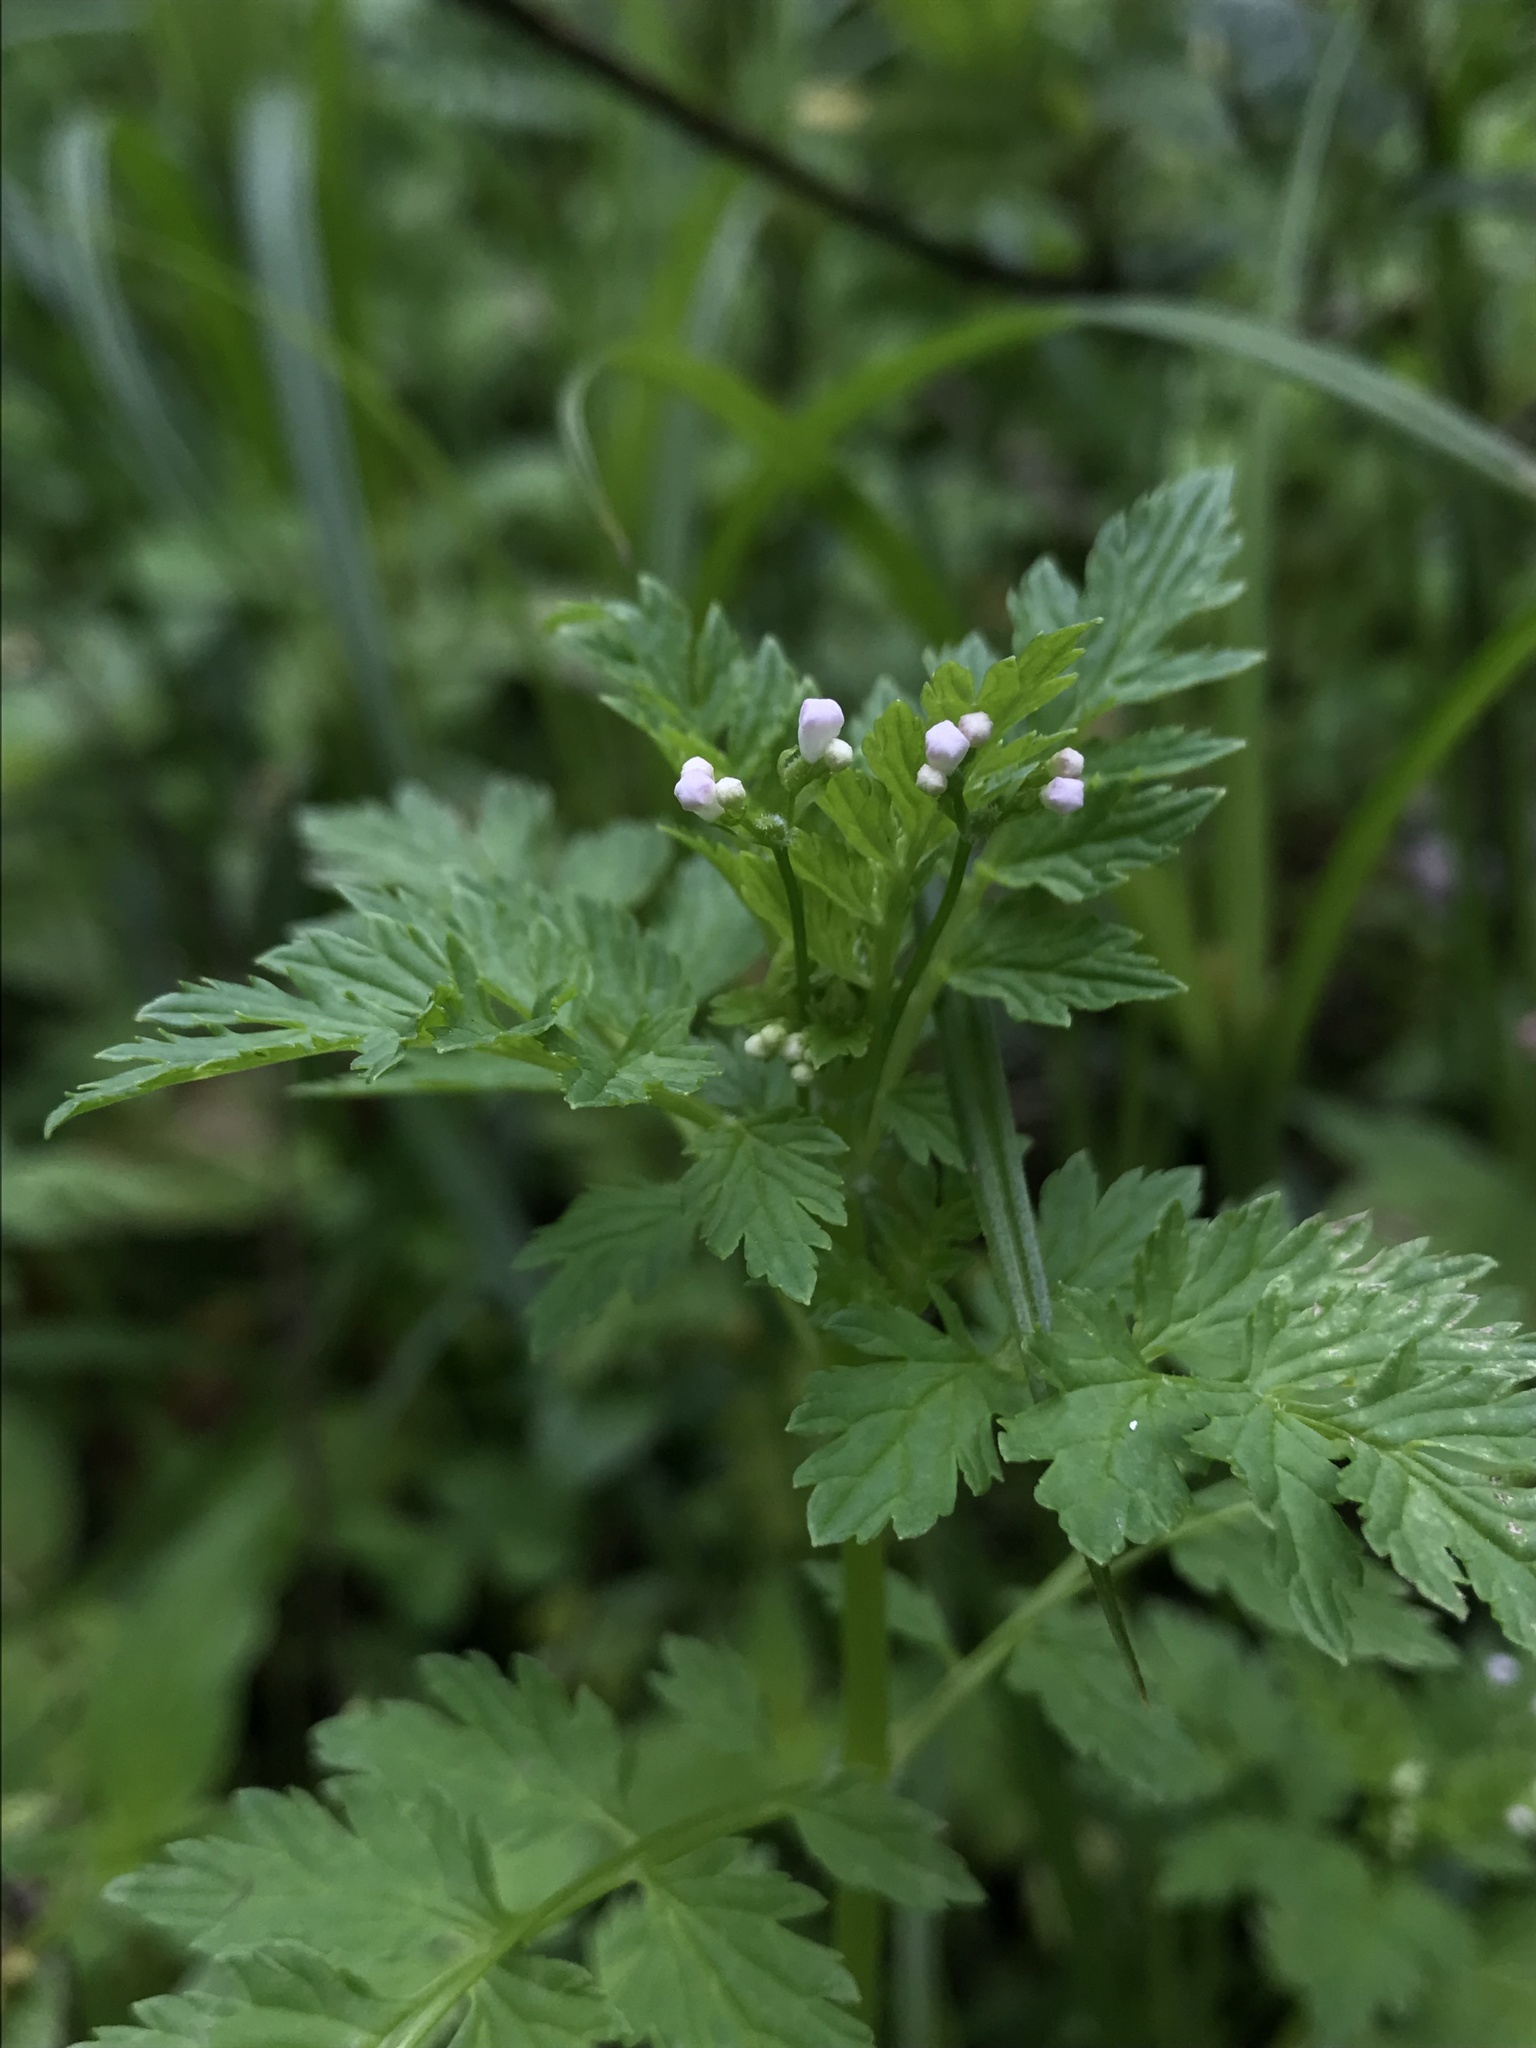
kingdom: Plantae
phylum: Tracheophyta
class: Magnoliopsida
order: Dipsacales
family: Caprifoliaceae
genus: Valeriana
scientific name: Valeriana chaerophylloides
